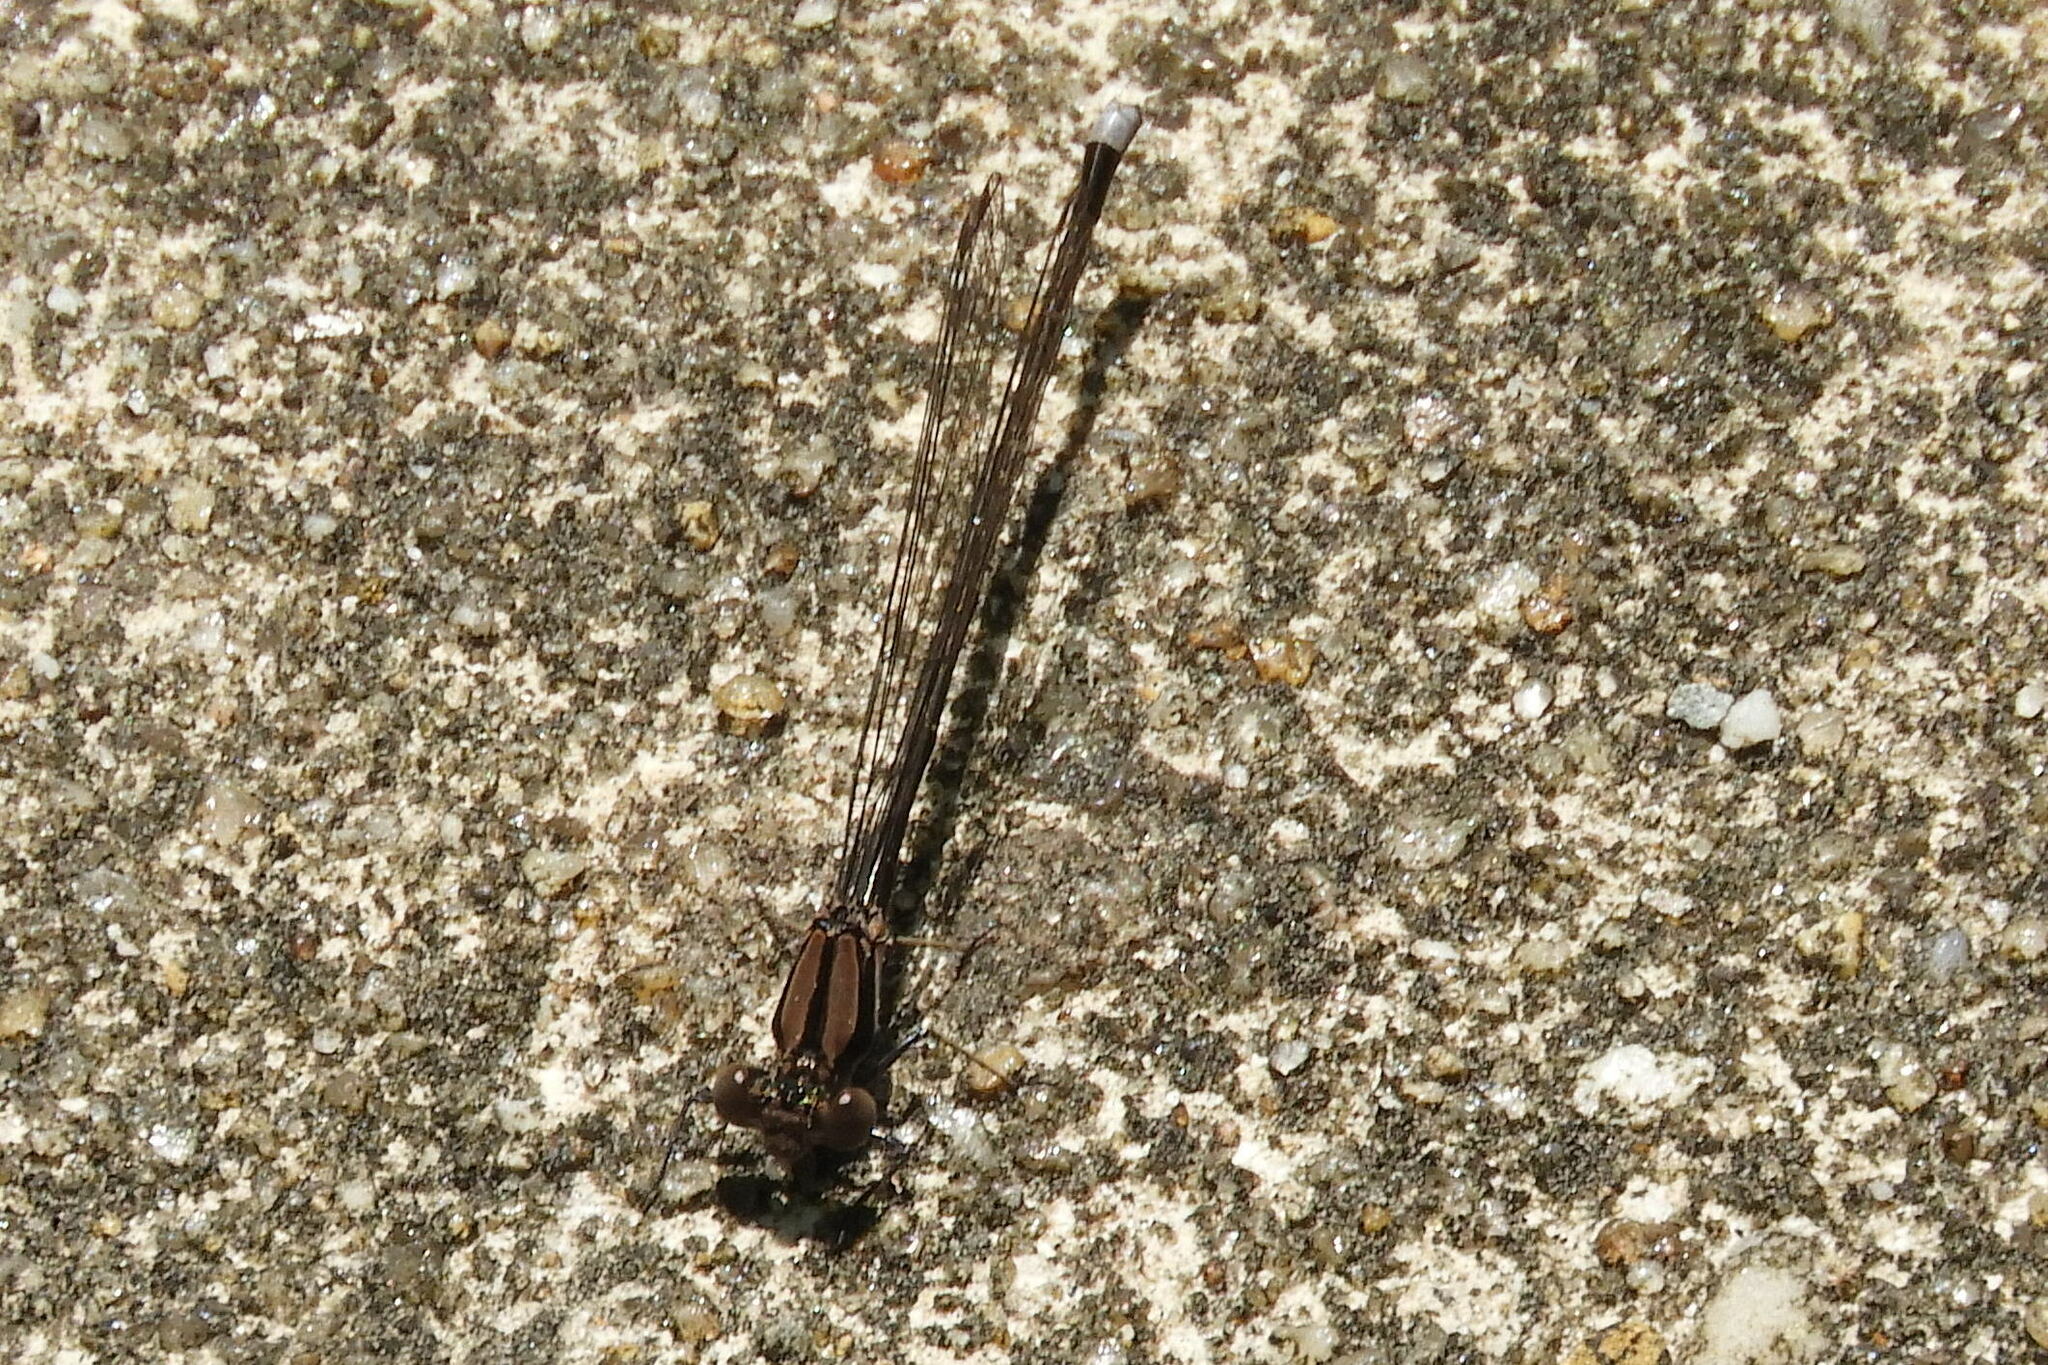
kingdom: Animalia
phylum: Arthropoda
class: Insecta
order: Odonata
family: Coenagrionidae
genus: Argia
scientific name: Argia tibialis
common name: Blue-tipped dancer
